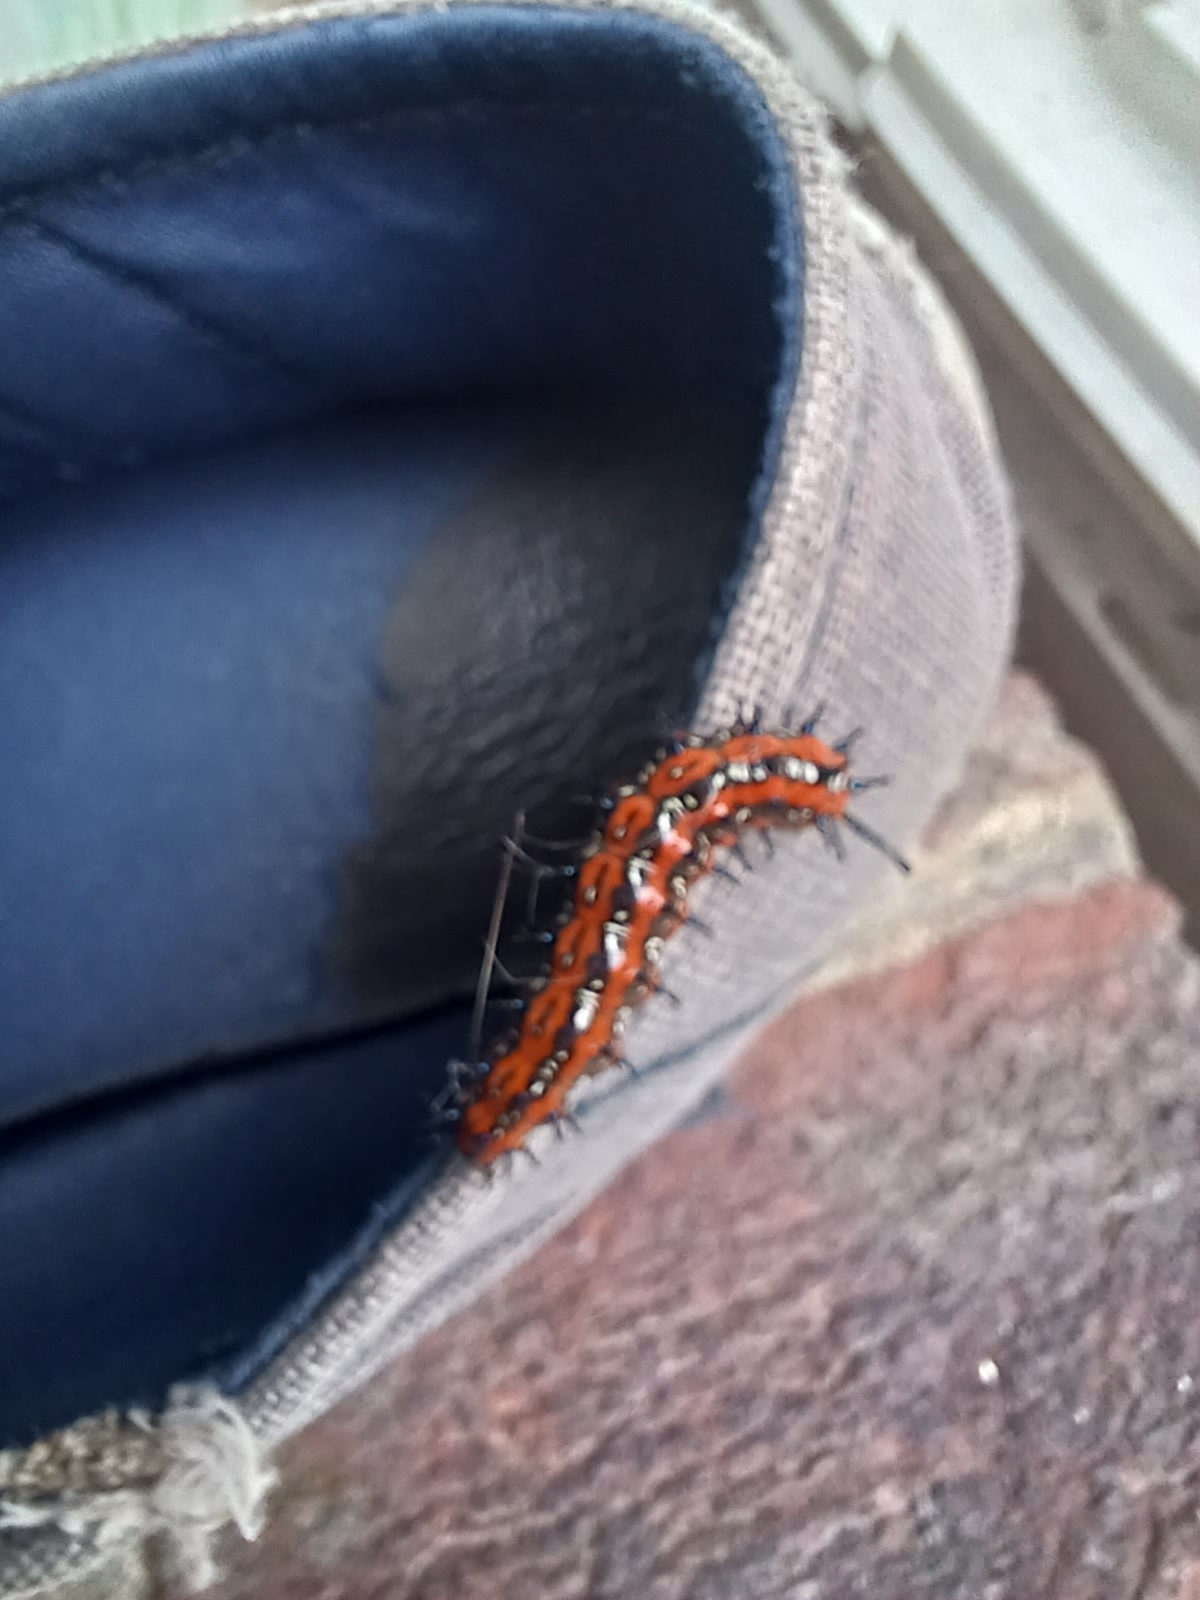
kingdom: Animalia
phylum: Arthropoda
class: Insecta
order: Lepidoptera
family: Nymphalidae
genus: Euptoieta
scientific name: Euptoieta claudia
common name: Variegated fritillary
